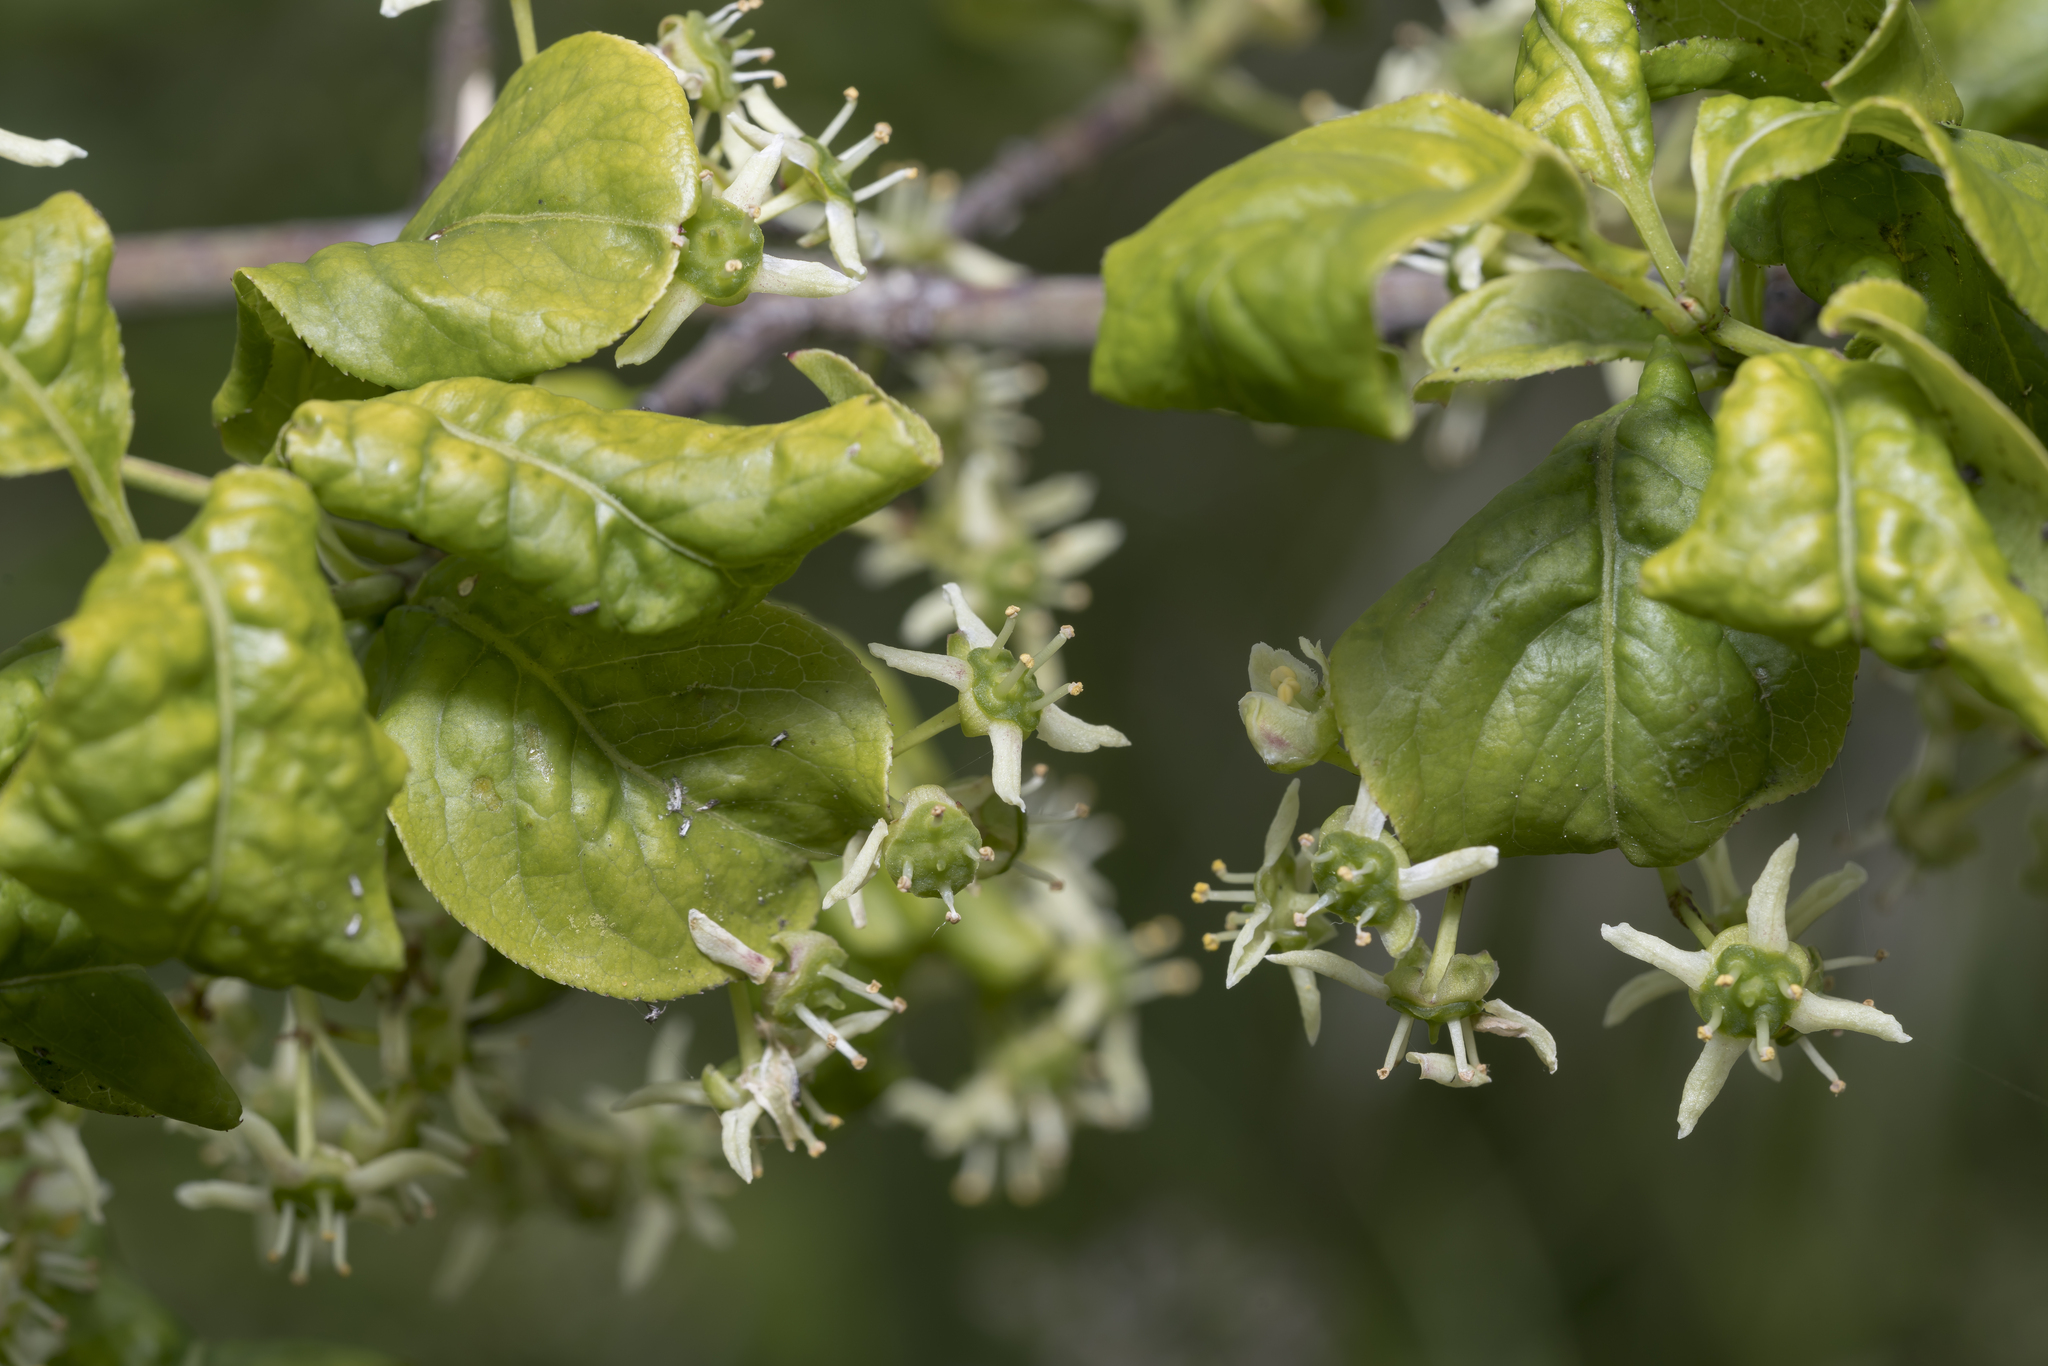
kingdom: Plantae
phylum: Tracheophyta
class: Magnoliopsida
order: Celastrales
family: Celastraceae
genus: Euonymus
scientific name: Euonymus europaeus
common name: Spindle
